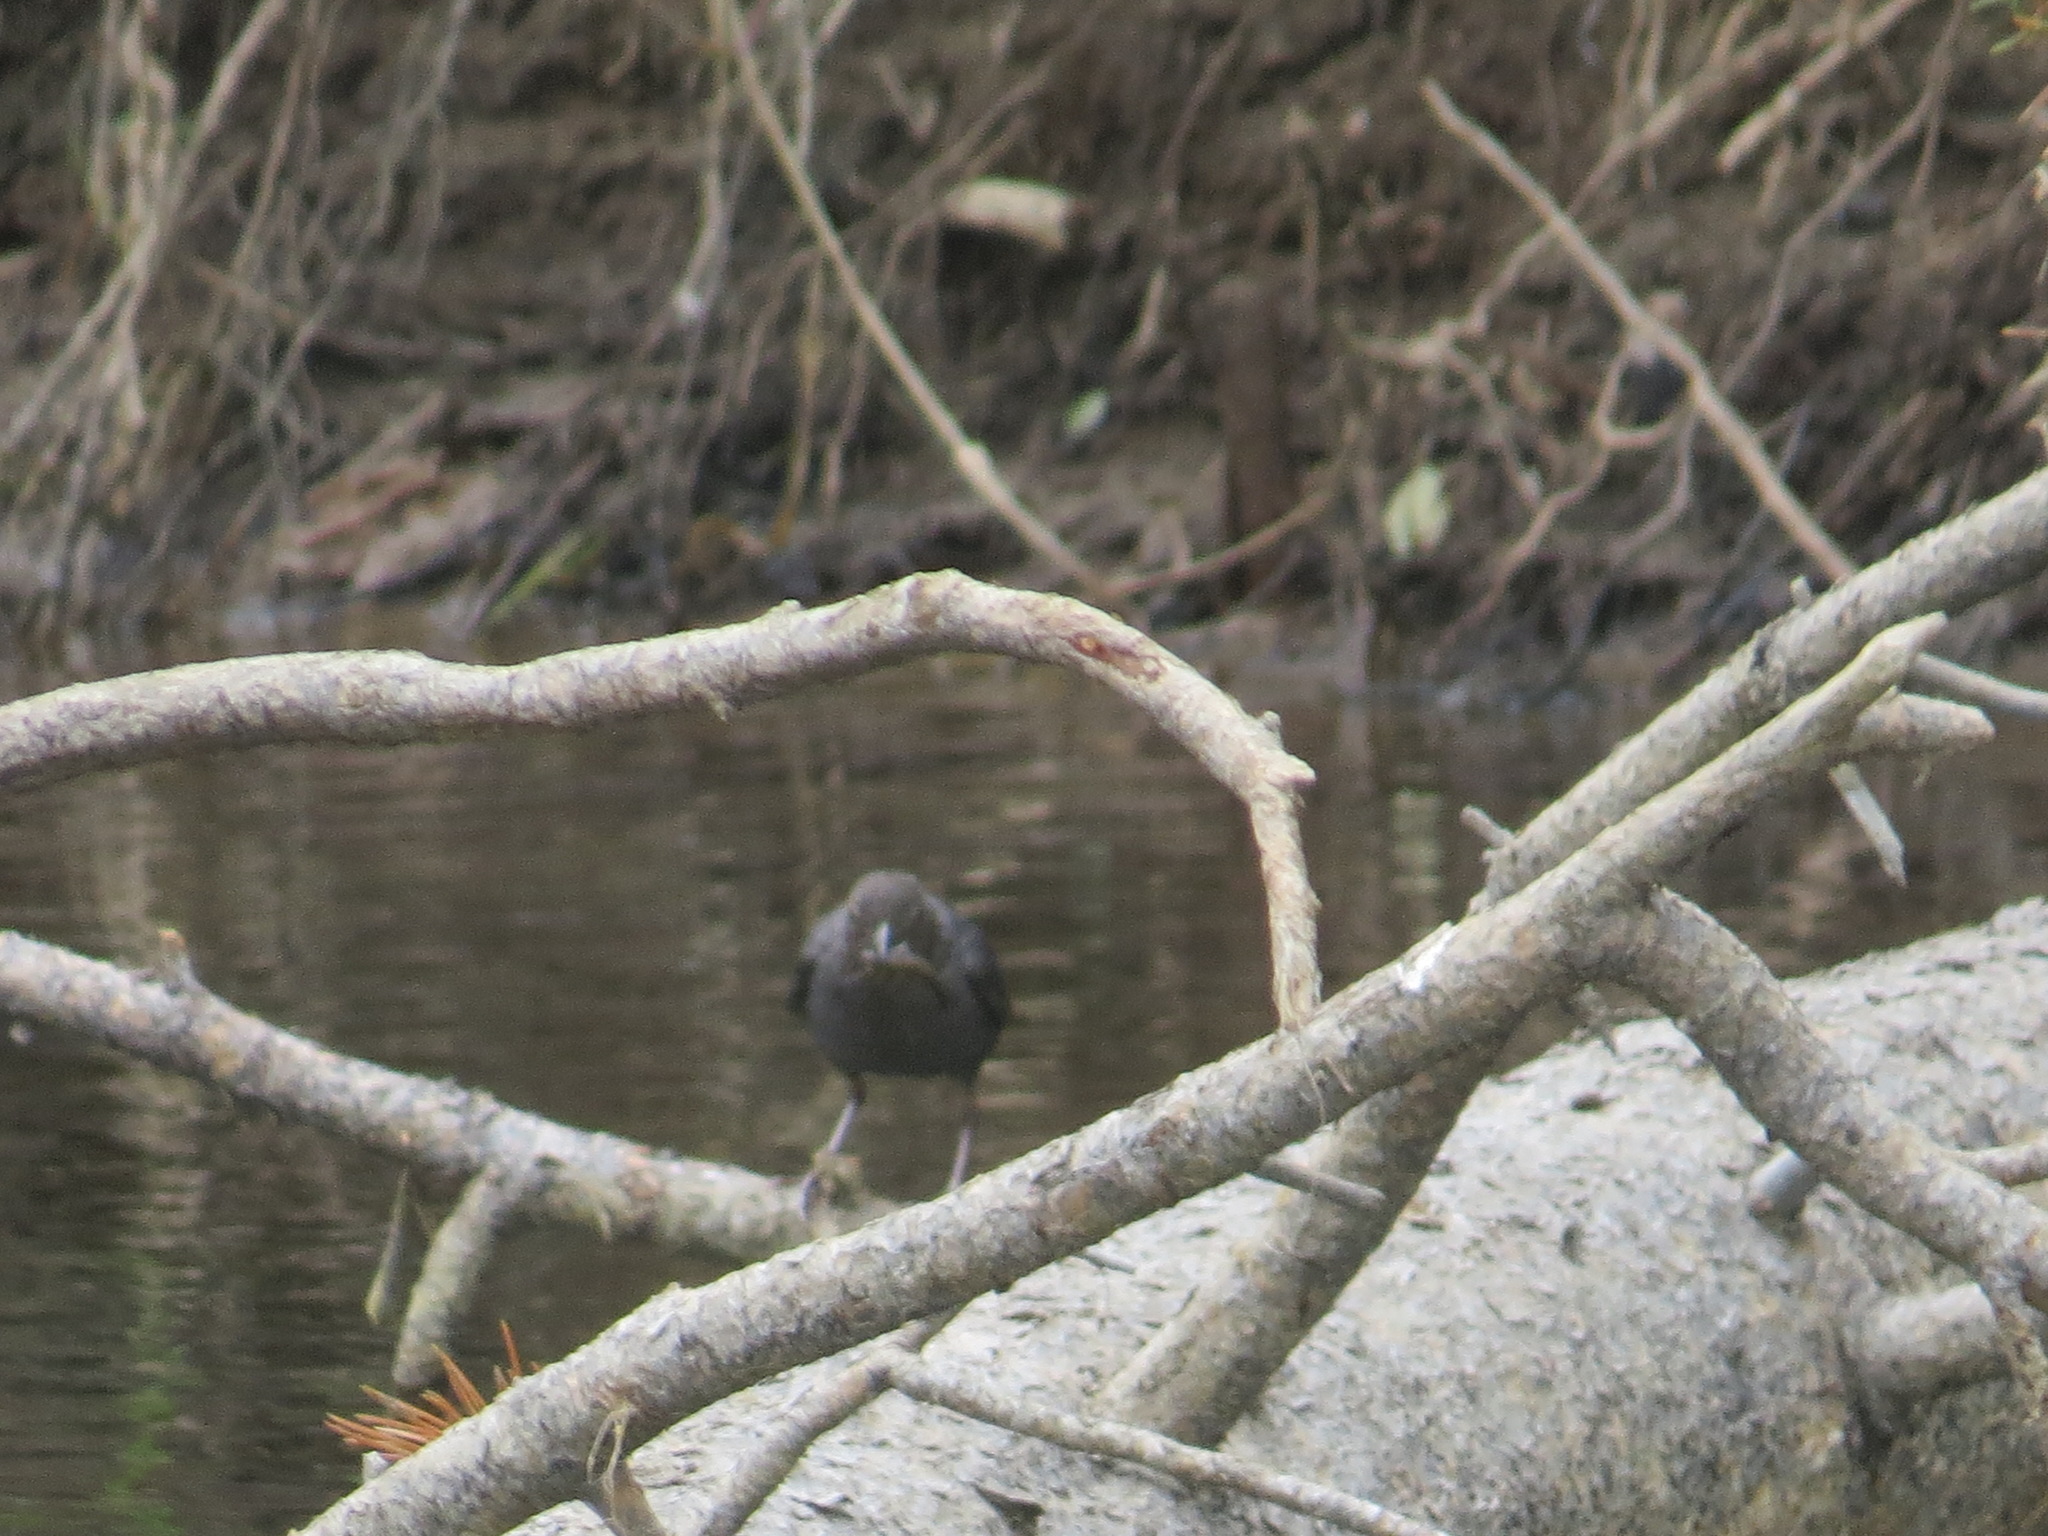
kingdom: Animalia
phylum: Chordata
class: Aves
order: Passeriformes
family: Cinclidae
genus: Cinclus
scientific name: Cinclus mexicanus
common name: American dipper
